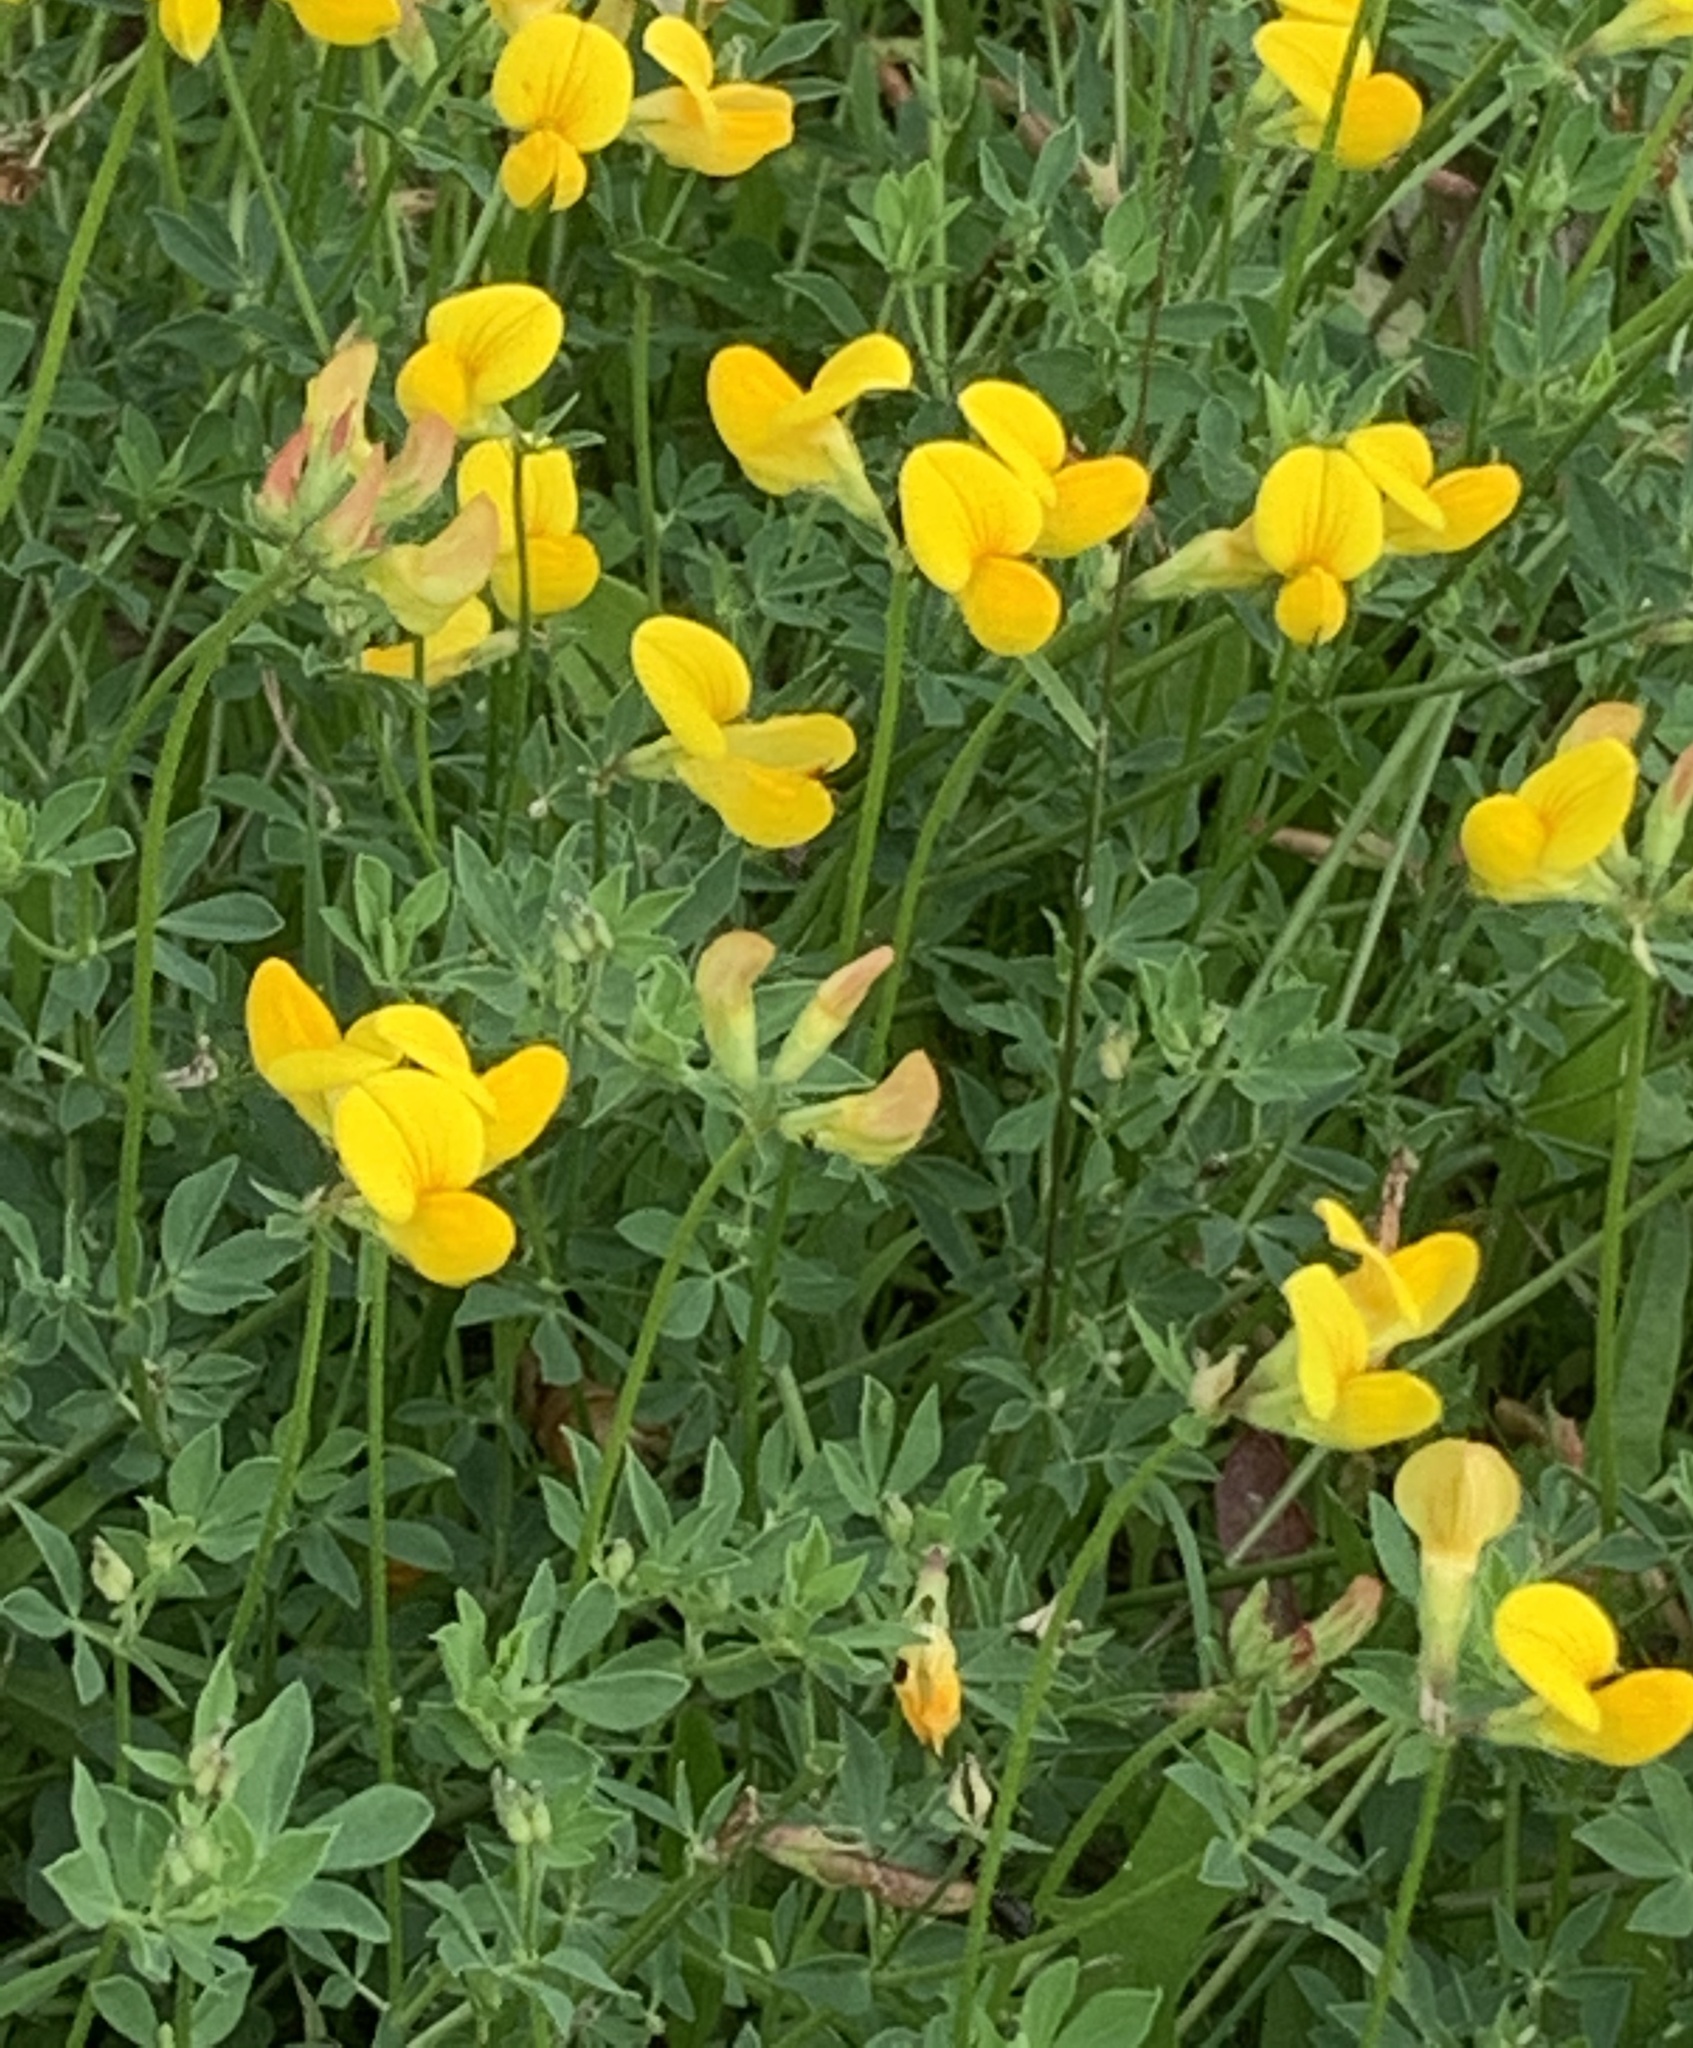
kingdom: Plantae
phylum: Tracheophyta
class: Magnoliopsida
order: Fabales
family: Fabaceae
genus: Lotus
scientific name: Lotus corniculatus
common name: Common bird's-foot-trefoil
